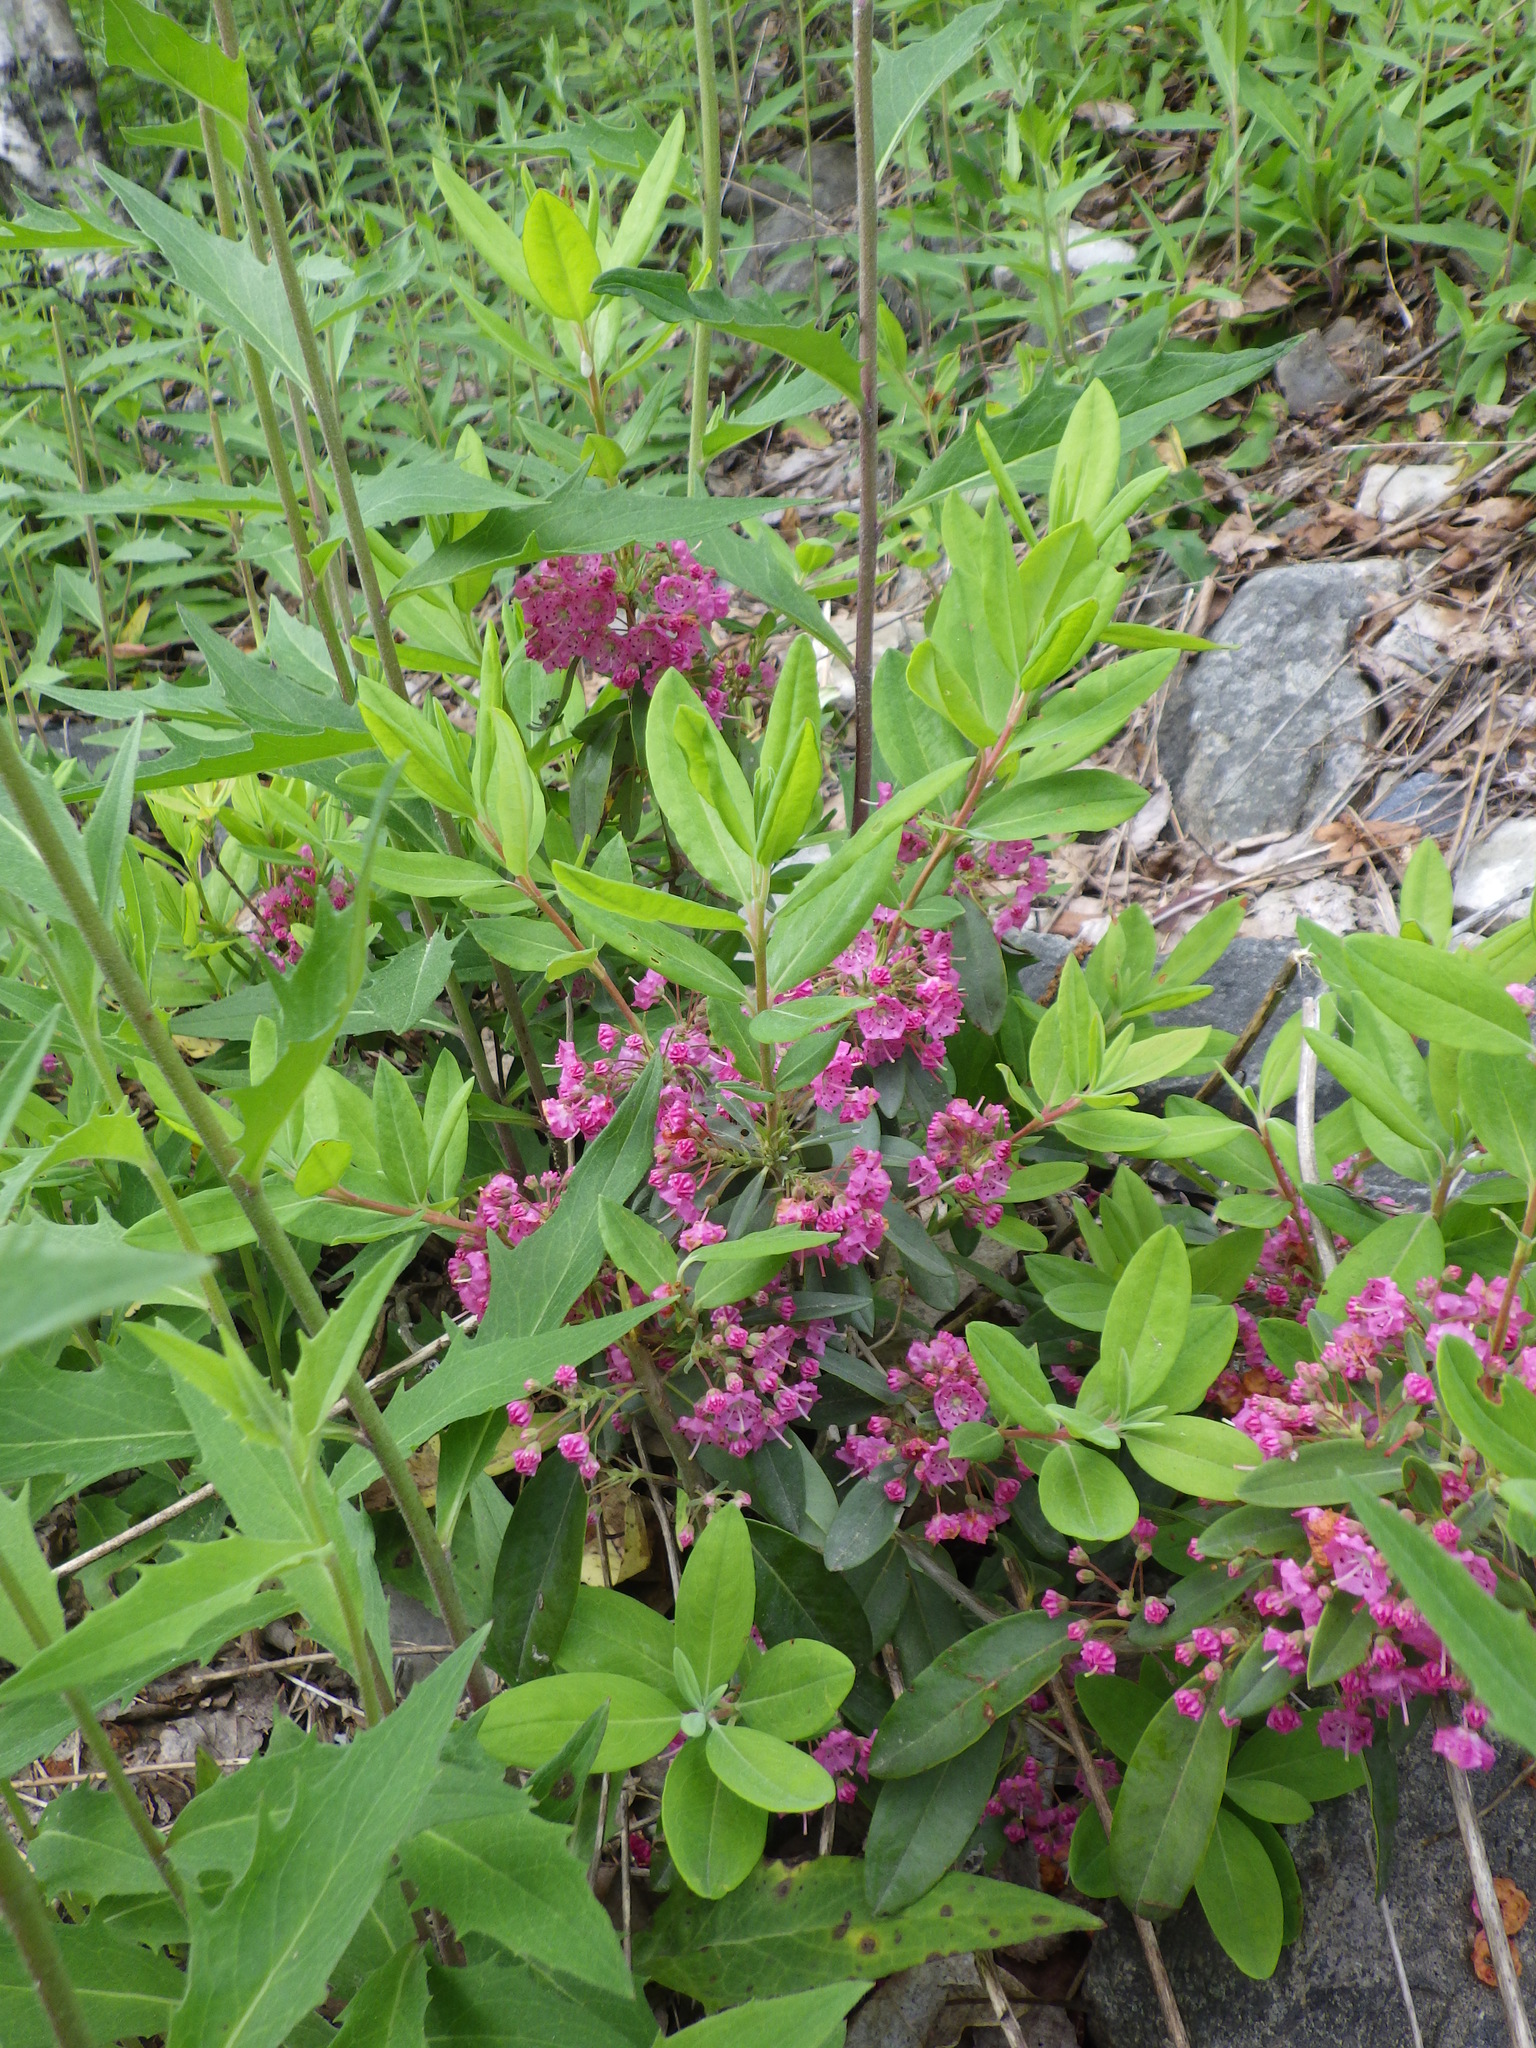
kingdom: Plantae
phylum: Tracheophyta
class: Magnoliopsida
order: Ericales
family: Ericaceae
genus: Kalmia
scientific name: Kalmia angustifolia
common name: Sheep-laurel
